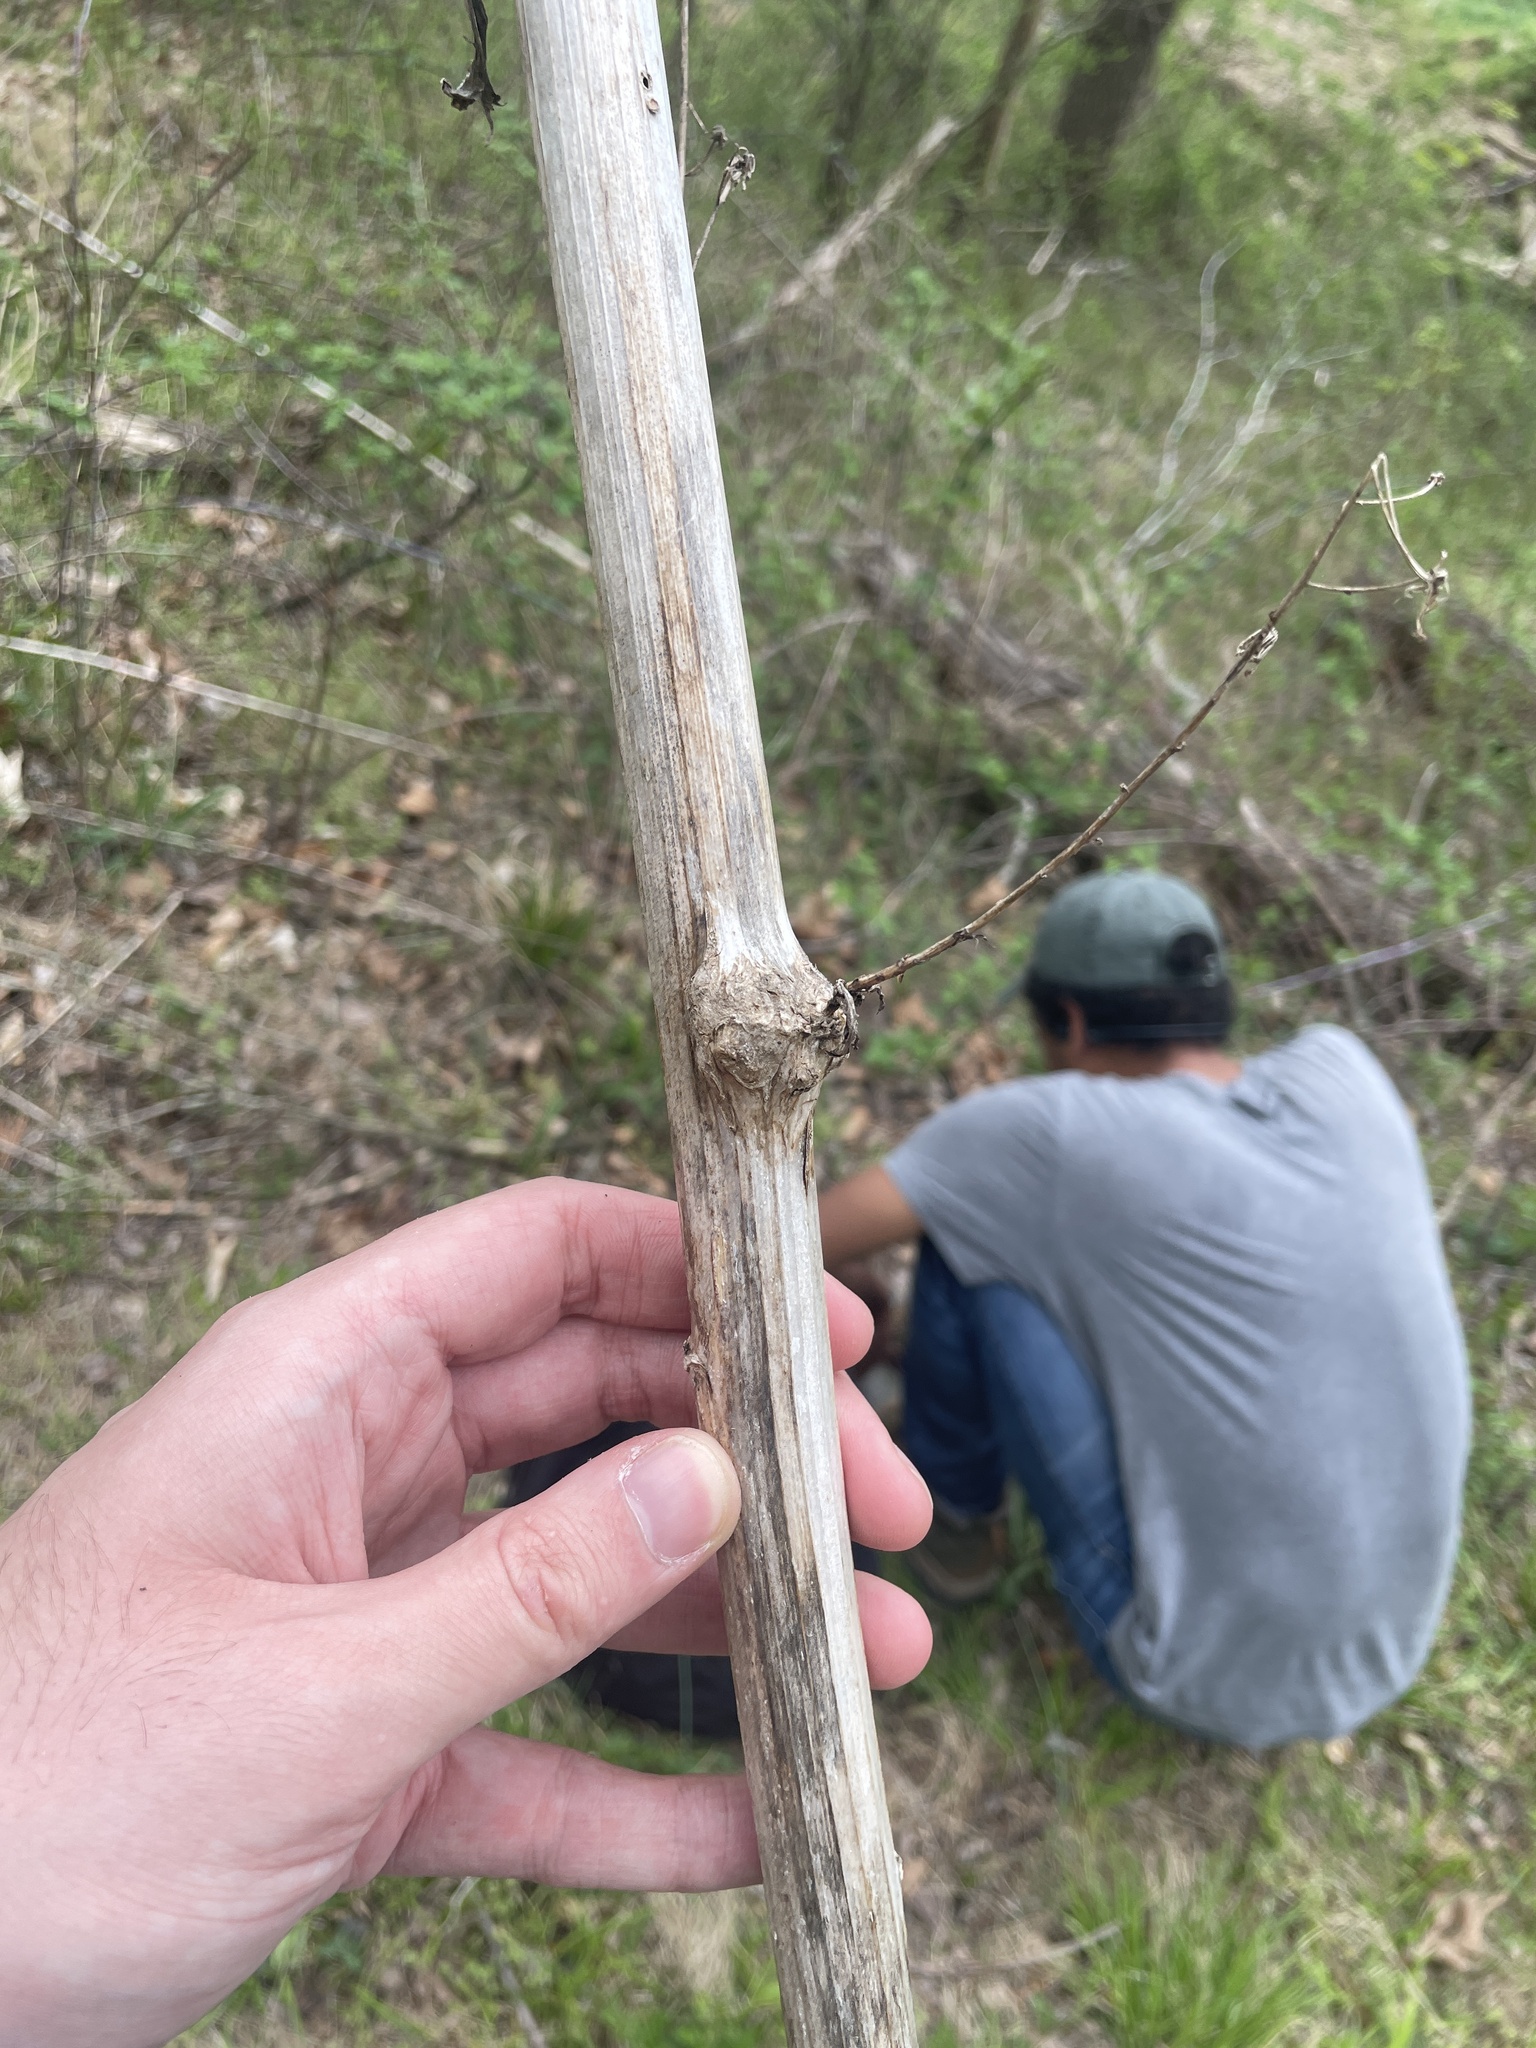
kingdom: Animalia
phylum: Arthropoda
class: Insecta
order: Hymenoptera
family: Cynipidae
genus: Aulacidea
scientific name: Aulacidea
